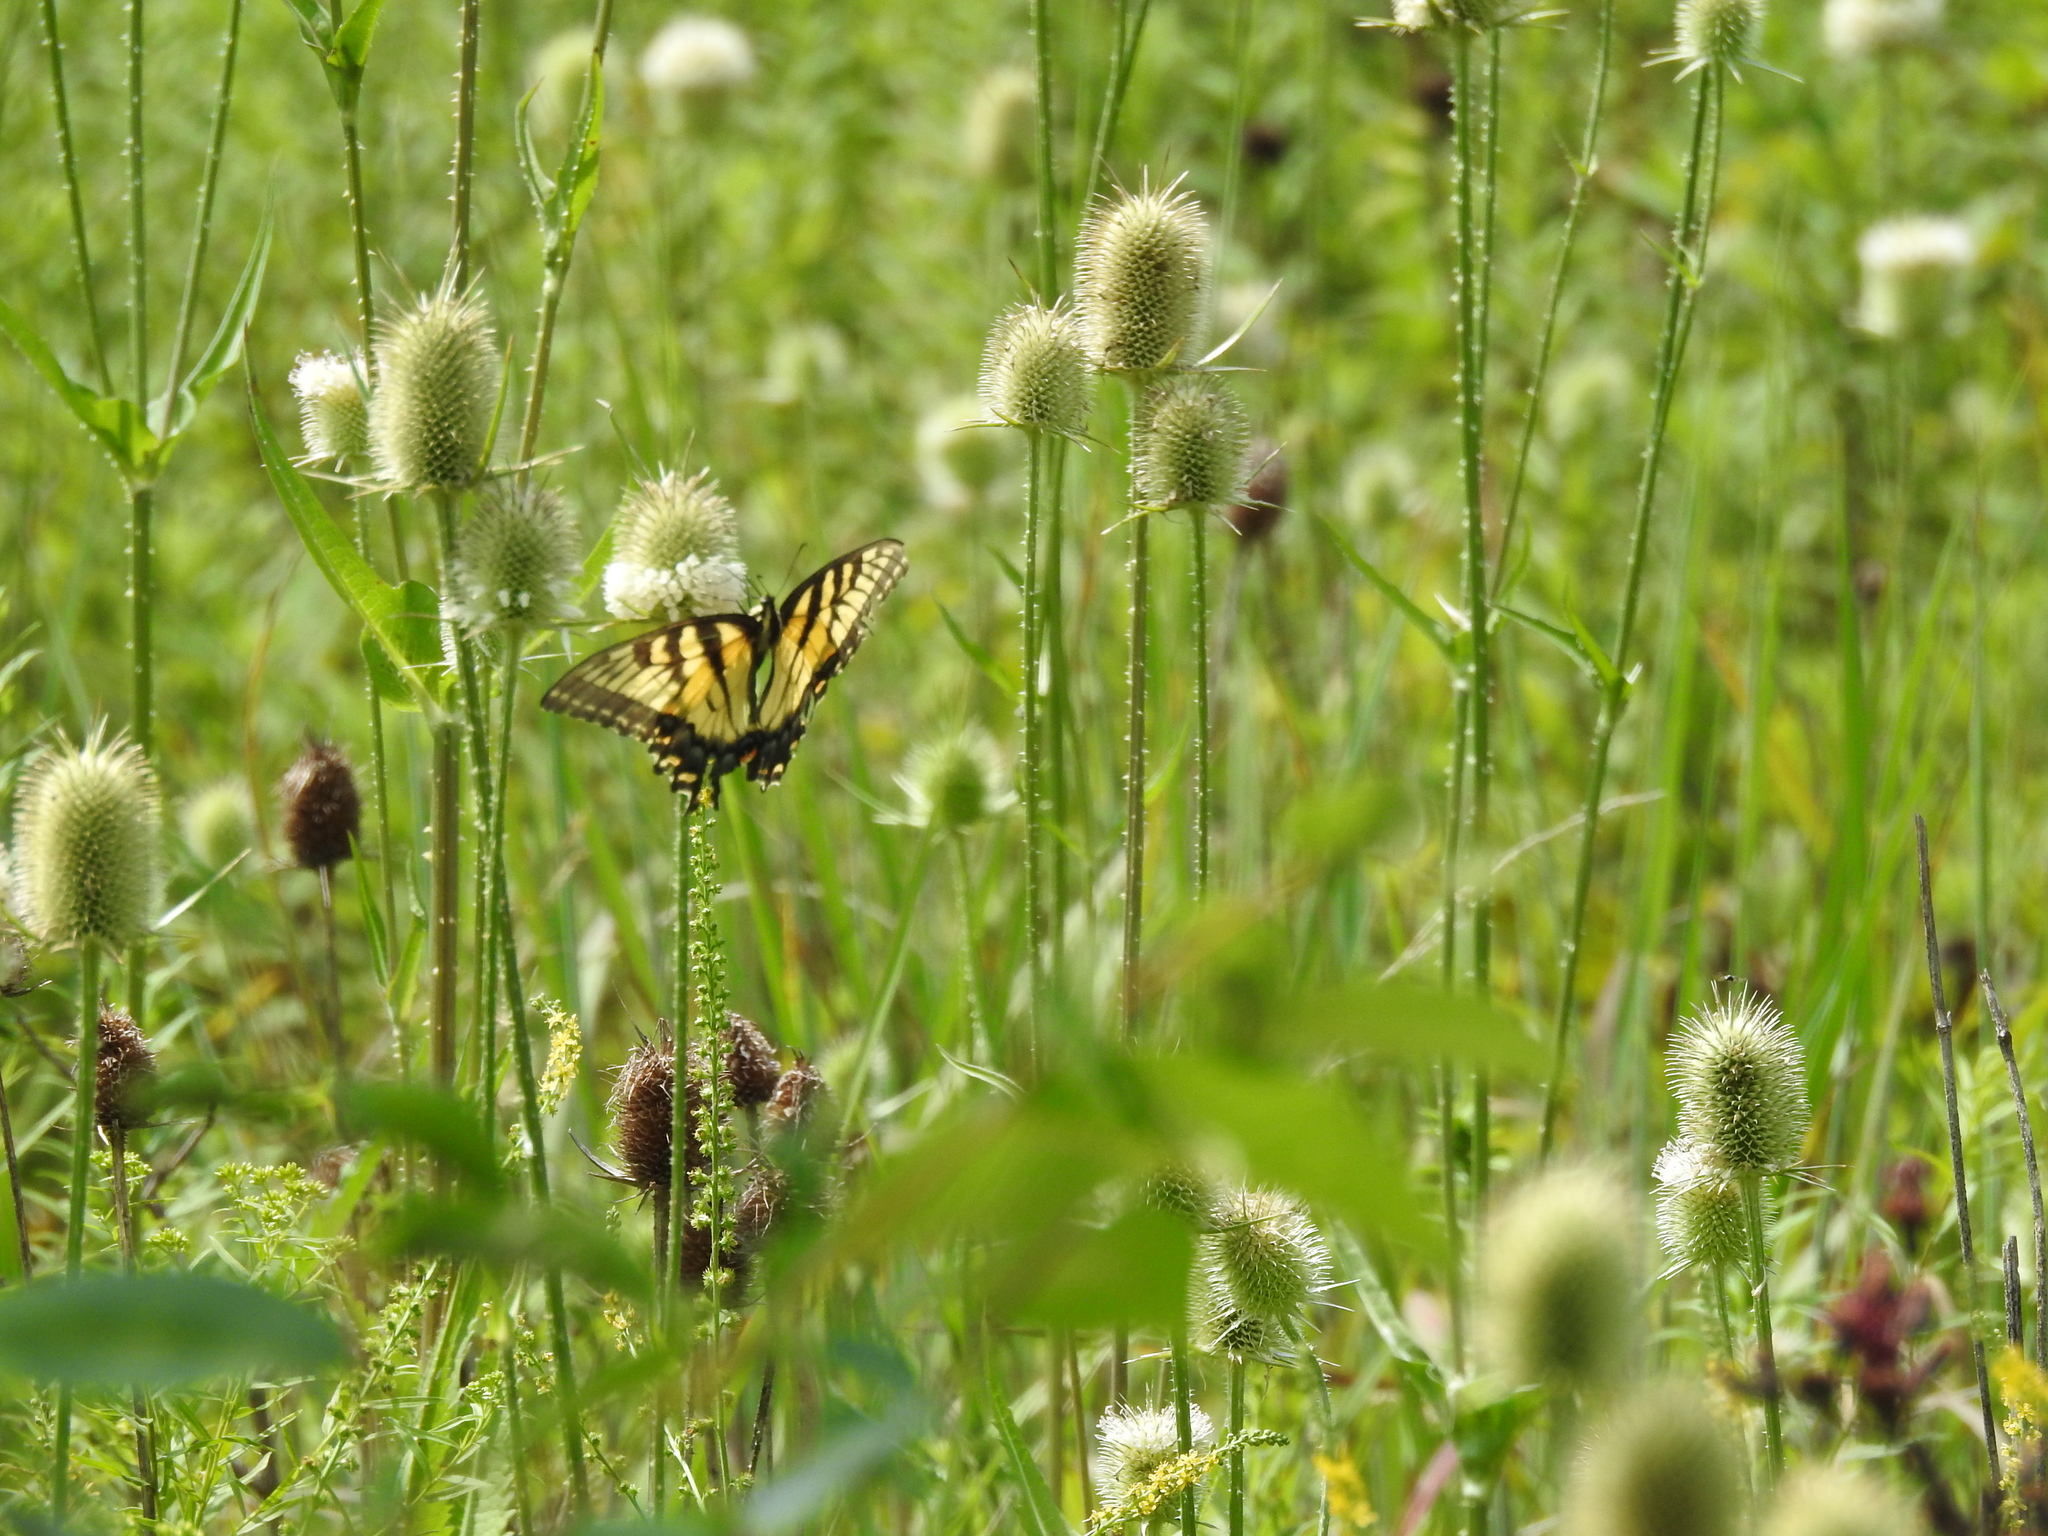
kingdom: Animalia
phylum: Arthropoda
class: Insecta
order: Lepidoptera
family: Papilionidae
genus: Papilio
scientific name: Papilio glaucus
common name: Tiger swallowtail
